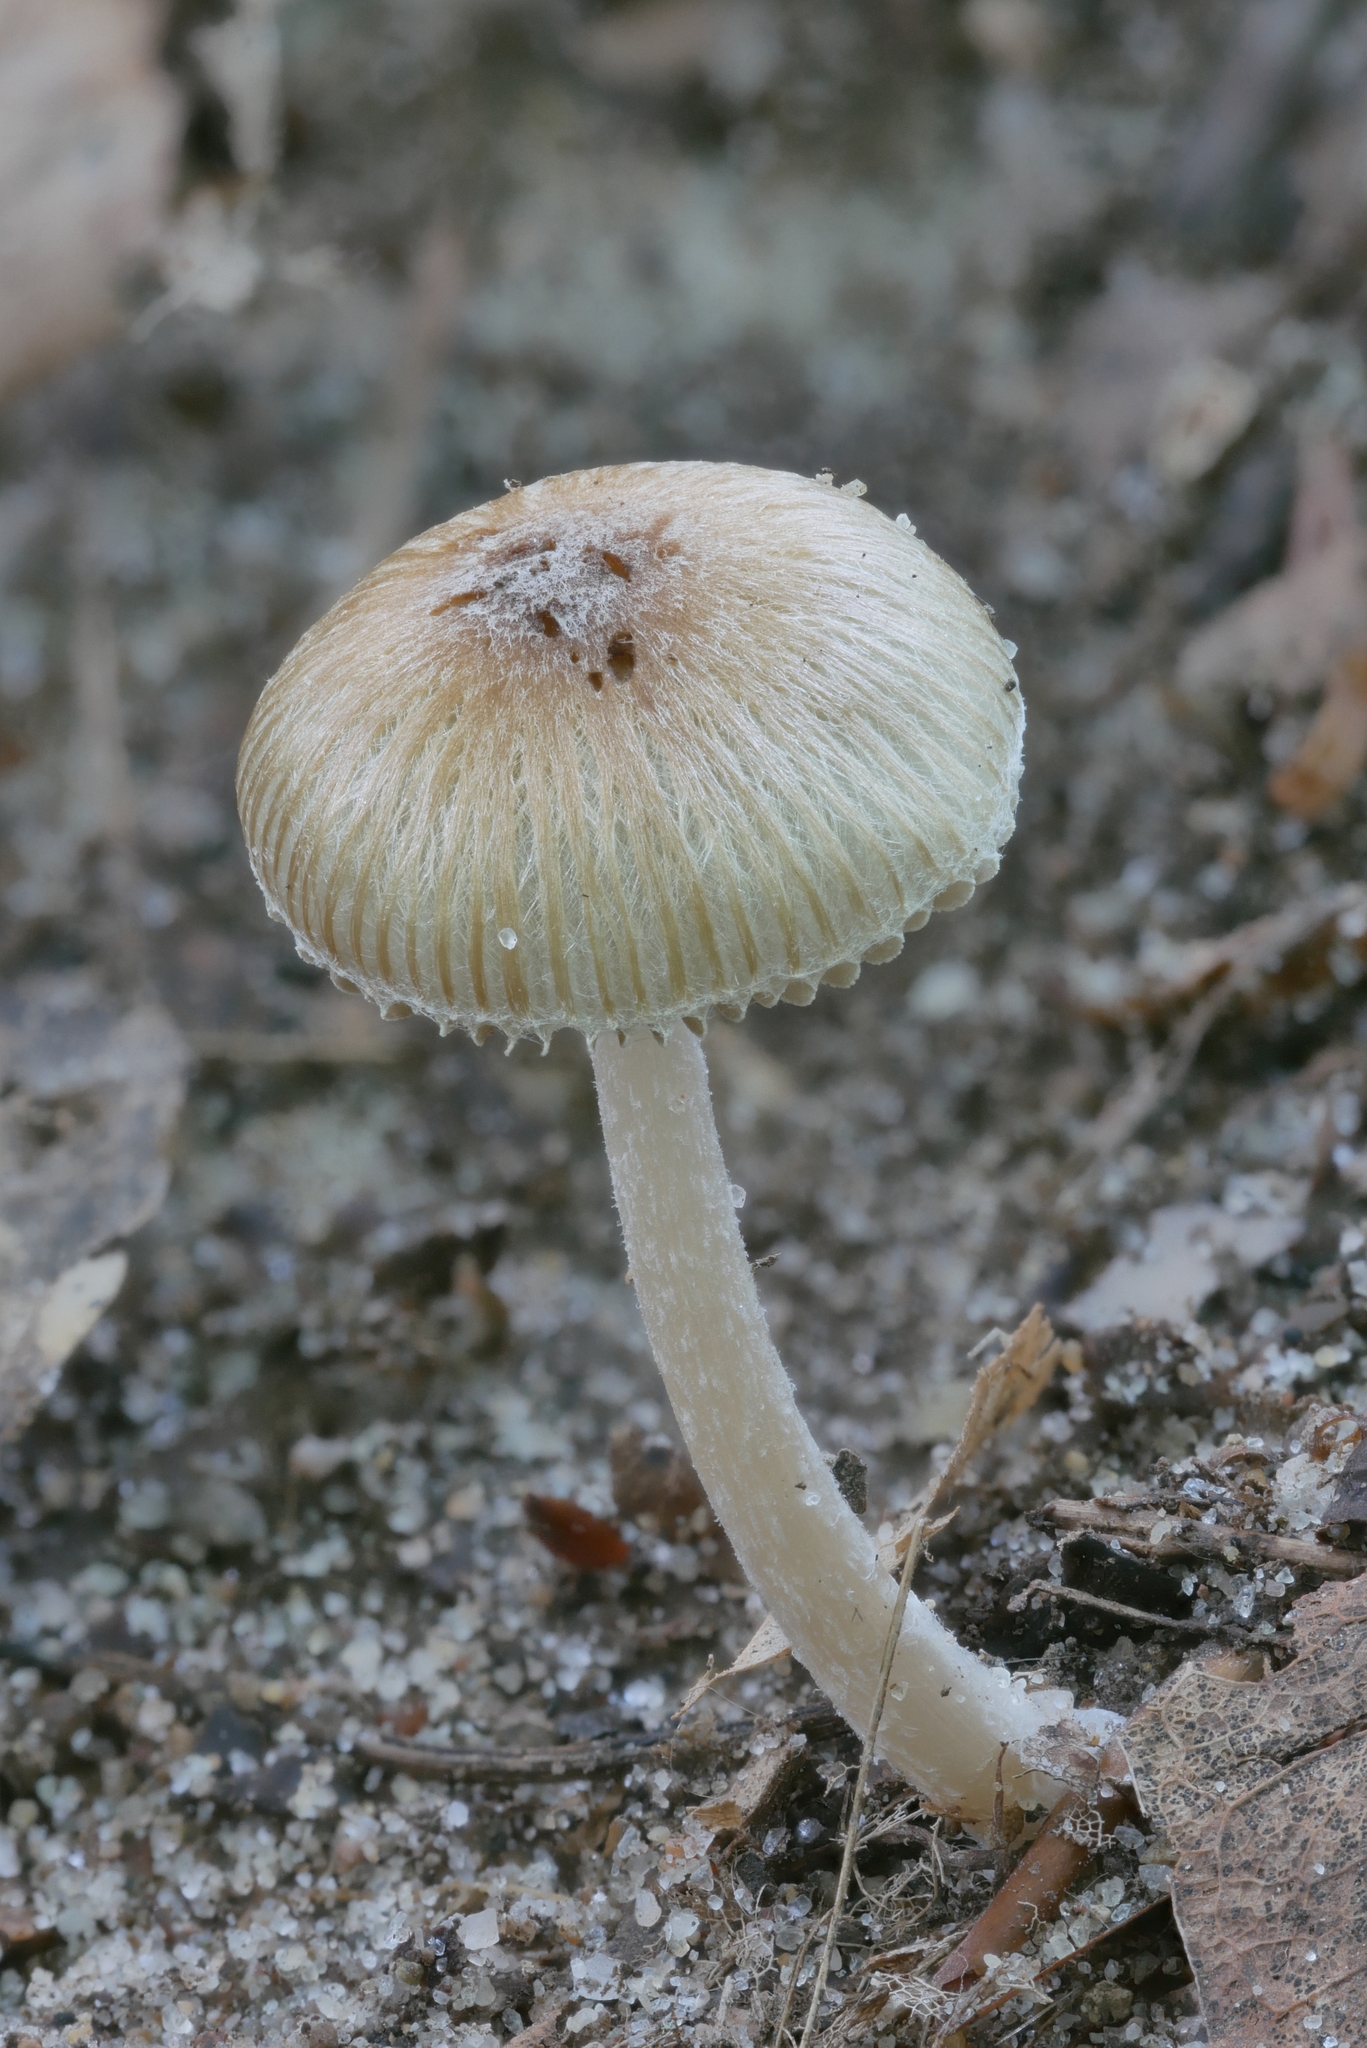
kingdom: Fungi
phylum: Basidiomycota
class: Agaricomycetes
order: Agaricales
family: Inocybaceae
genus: Pseudosperma
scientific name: Pseudosperma friabile
